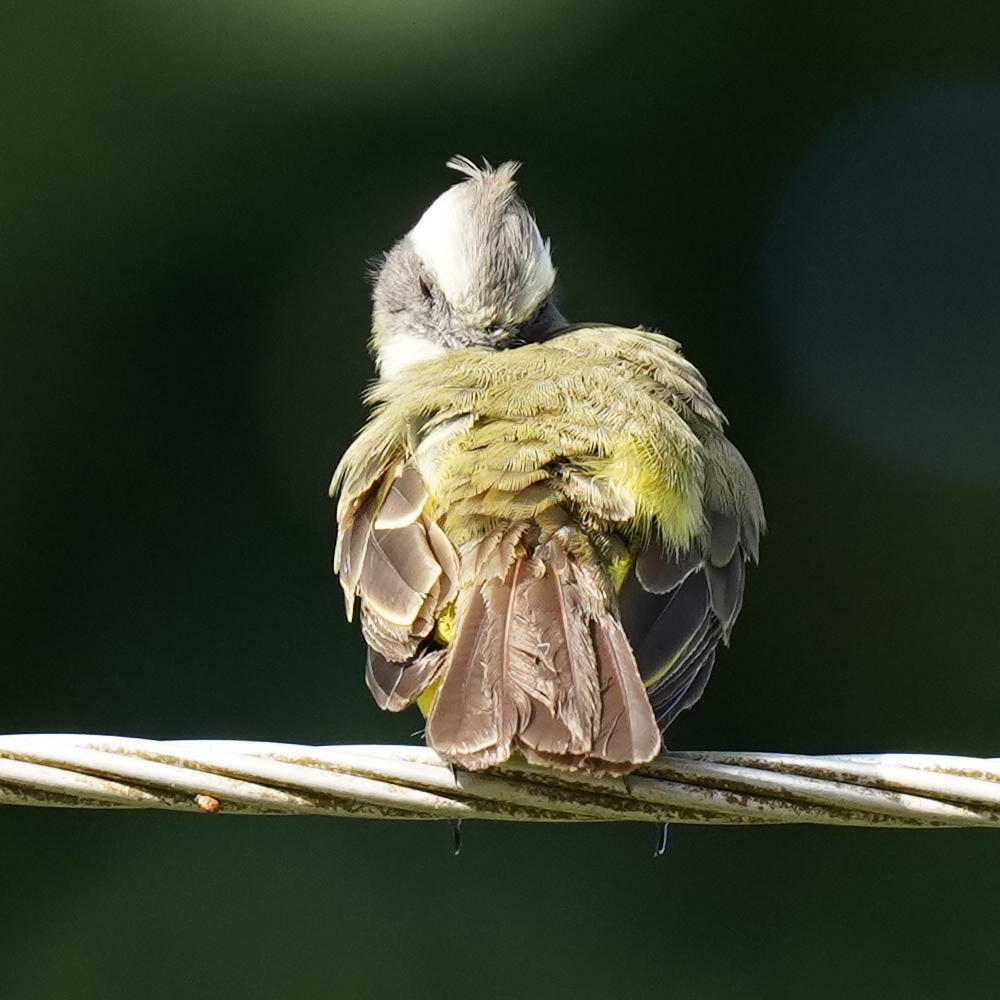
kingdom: Animalia
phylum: Chordata
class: Aves
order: Passeriformes
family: Tyrannidae
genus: Myiozetetes
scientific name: Myiozetetes similis
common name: Social flycatcher
